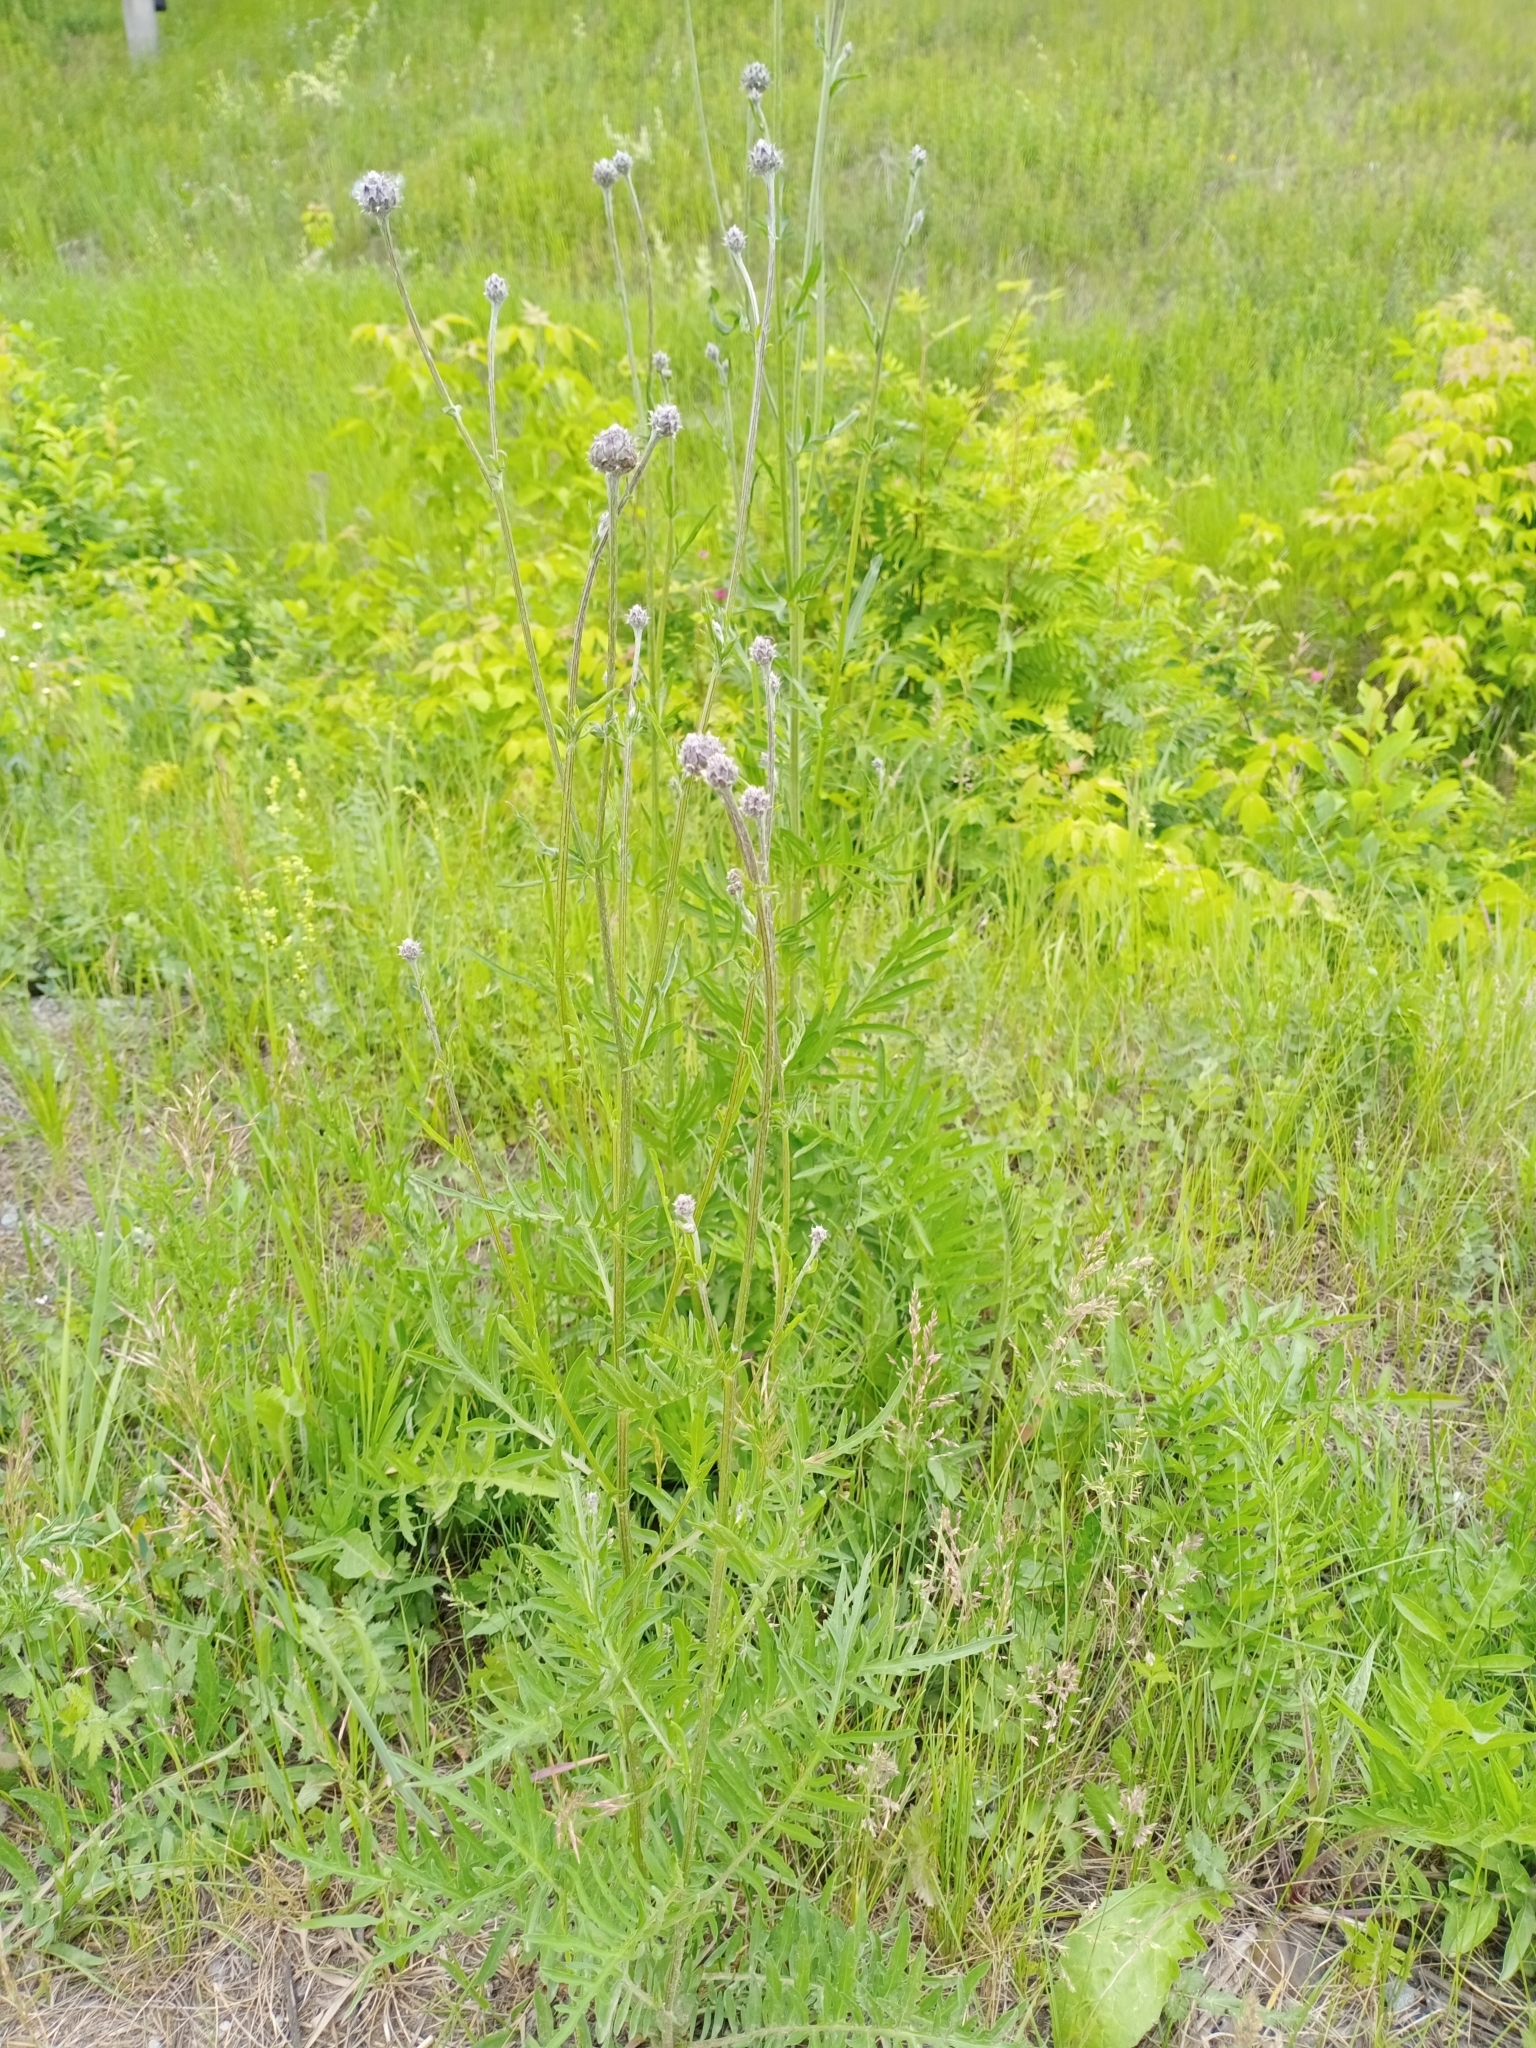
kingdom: Plantae
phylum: Tracheophyta
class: Magnoliopsida
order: Asterales
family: Asteraceae
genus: Centaurea
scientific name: Centaurea scabiosa
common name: Greater knapweed
